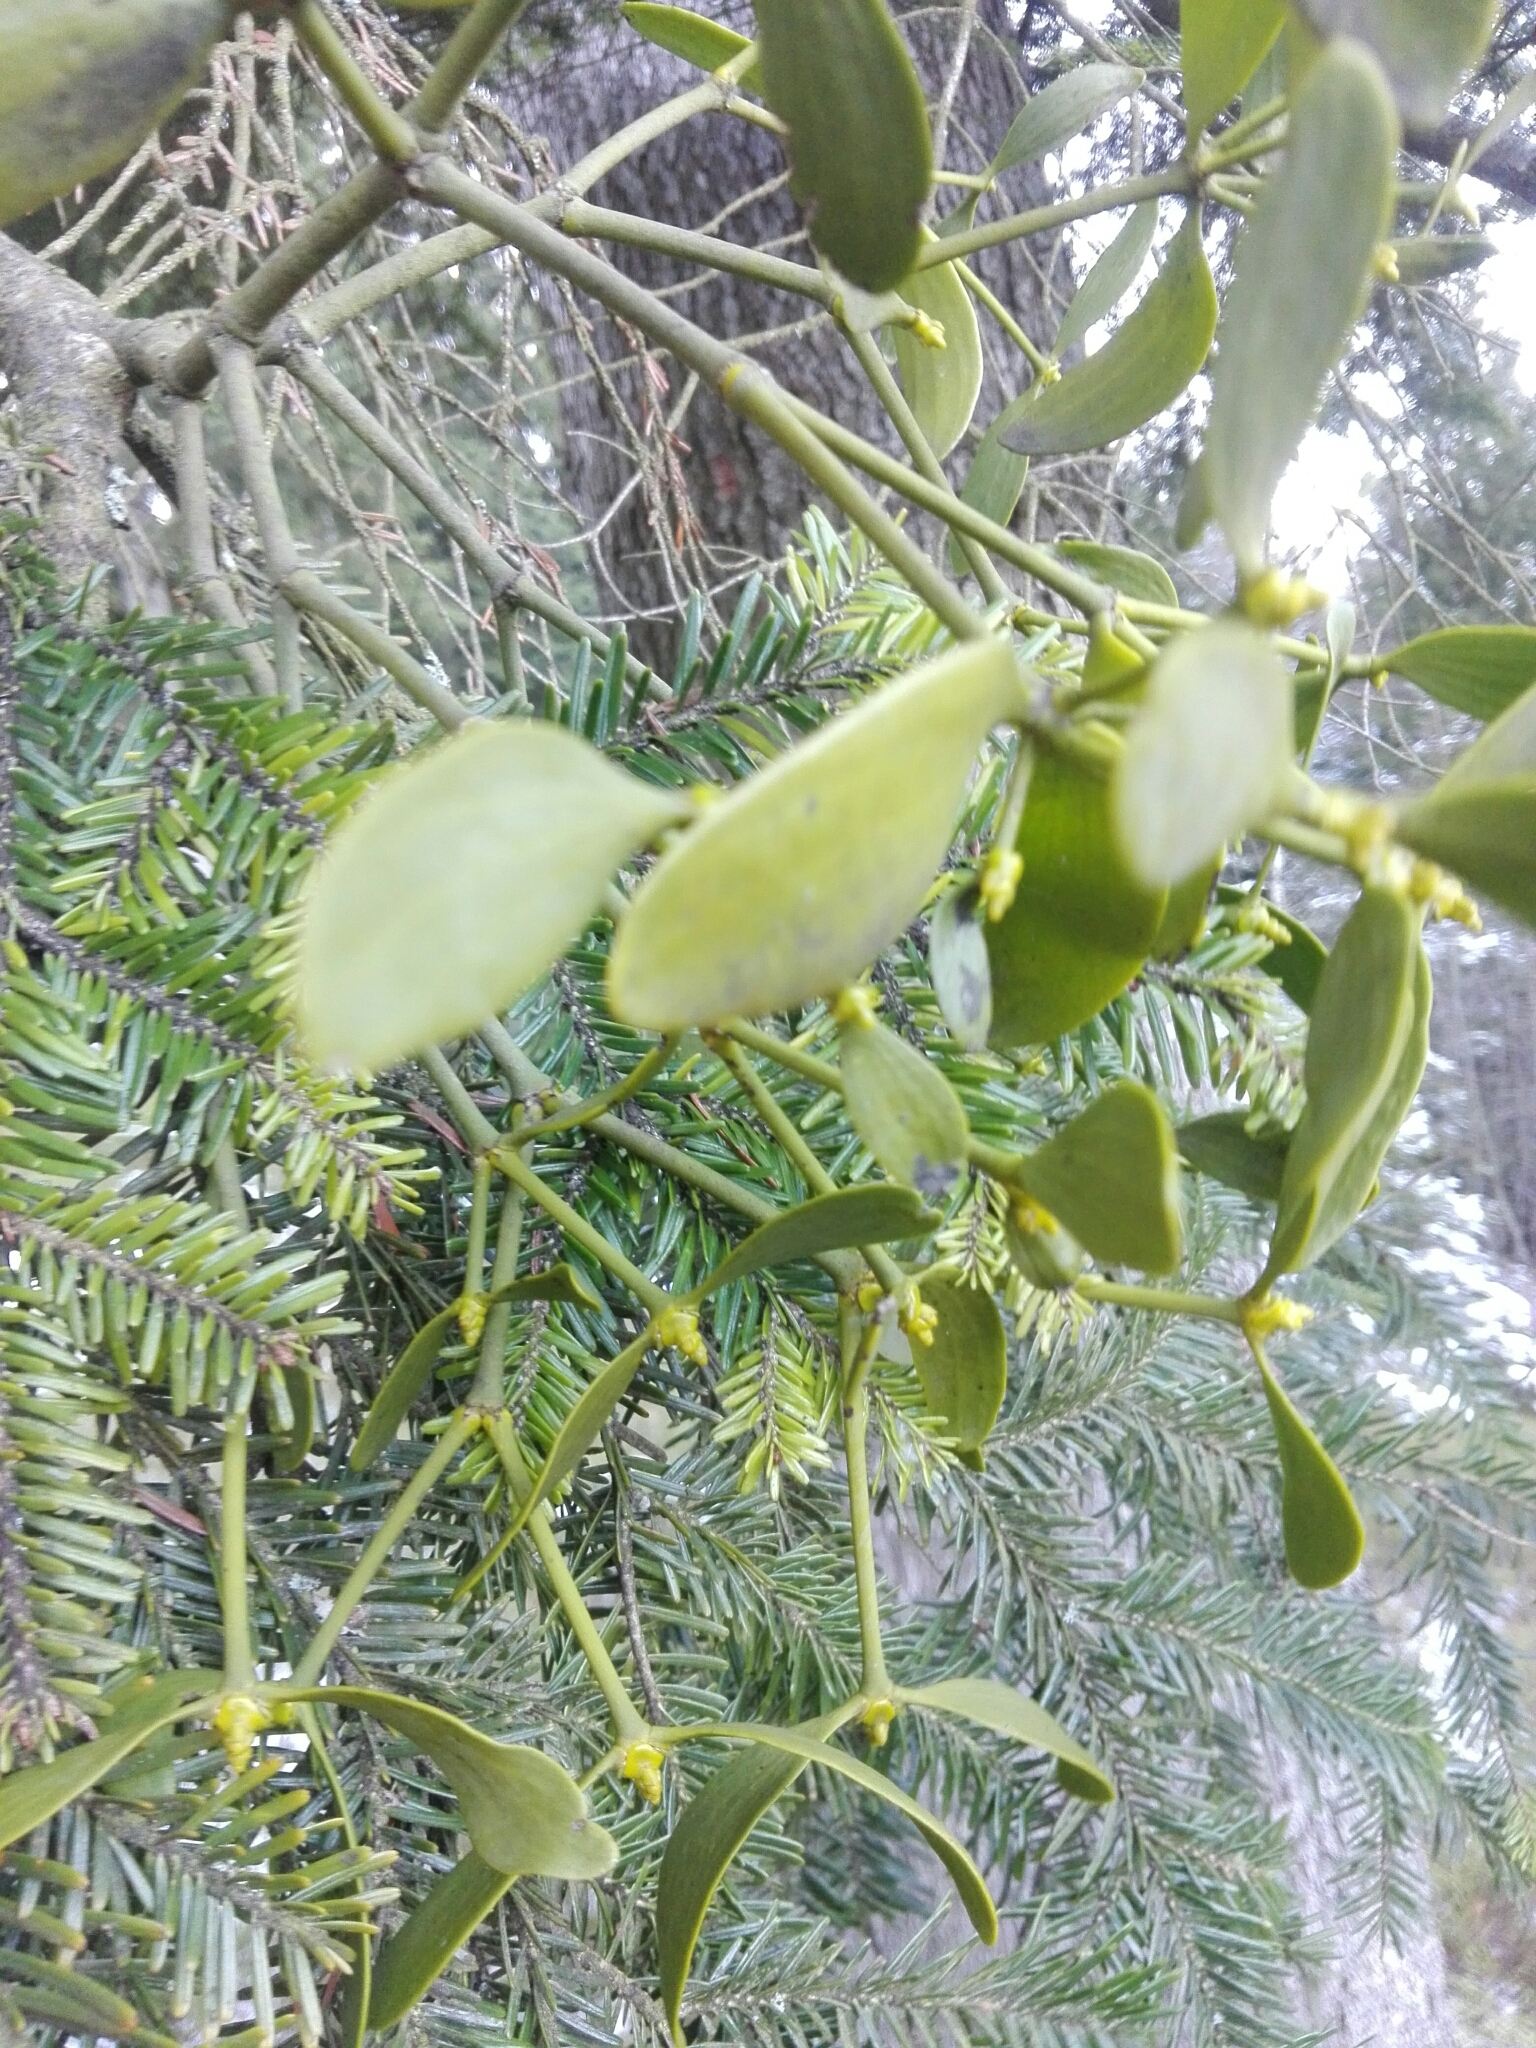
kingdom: Plantae
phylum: Tracheophyta
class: Magnoliopsida
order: Santalales
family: Viscaceae
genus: Viscum
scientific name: Viscum album
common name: Mistletoe
